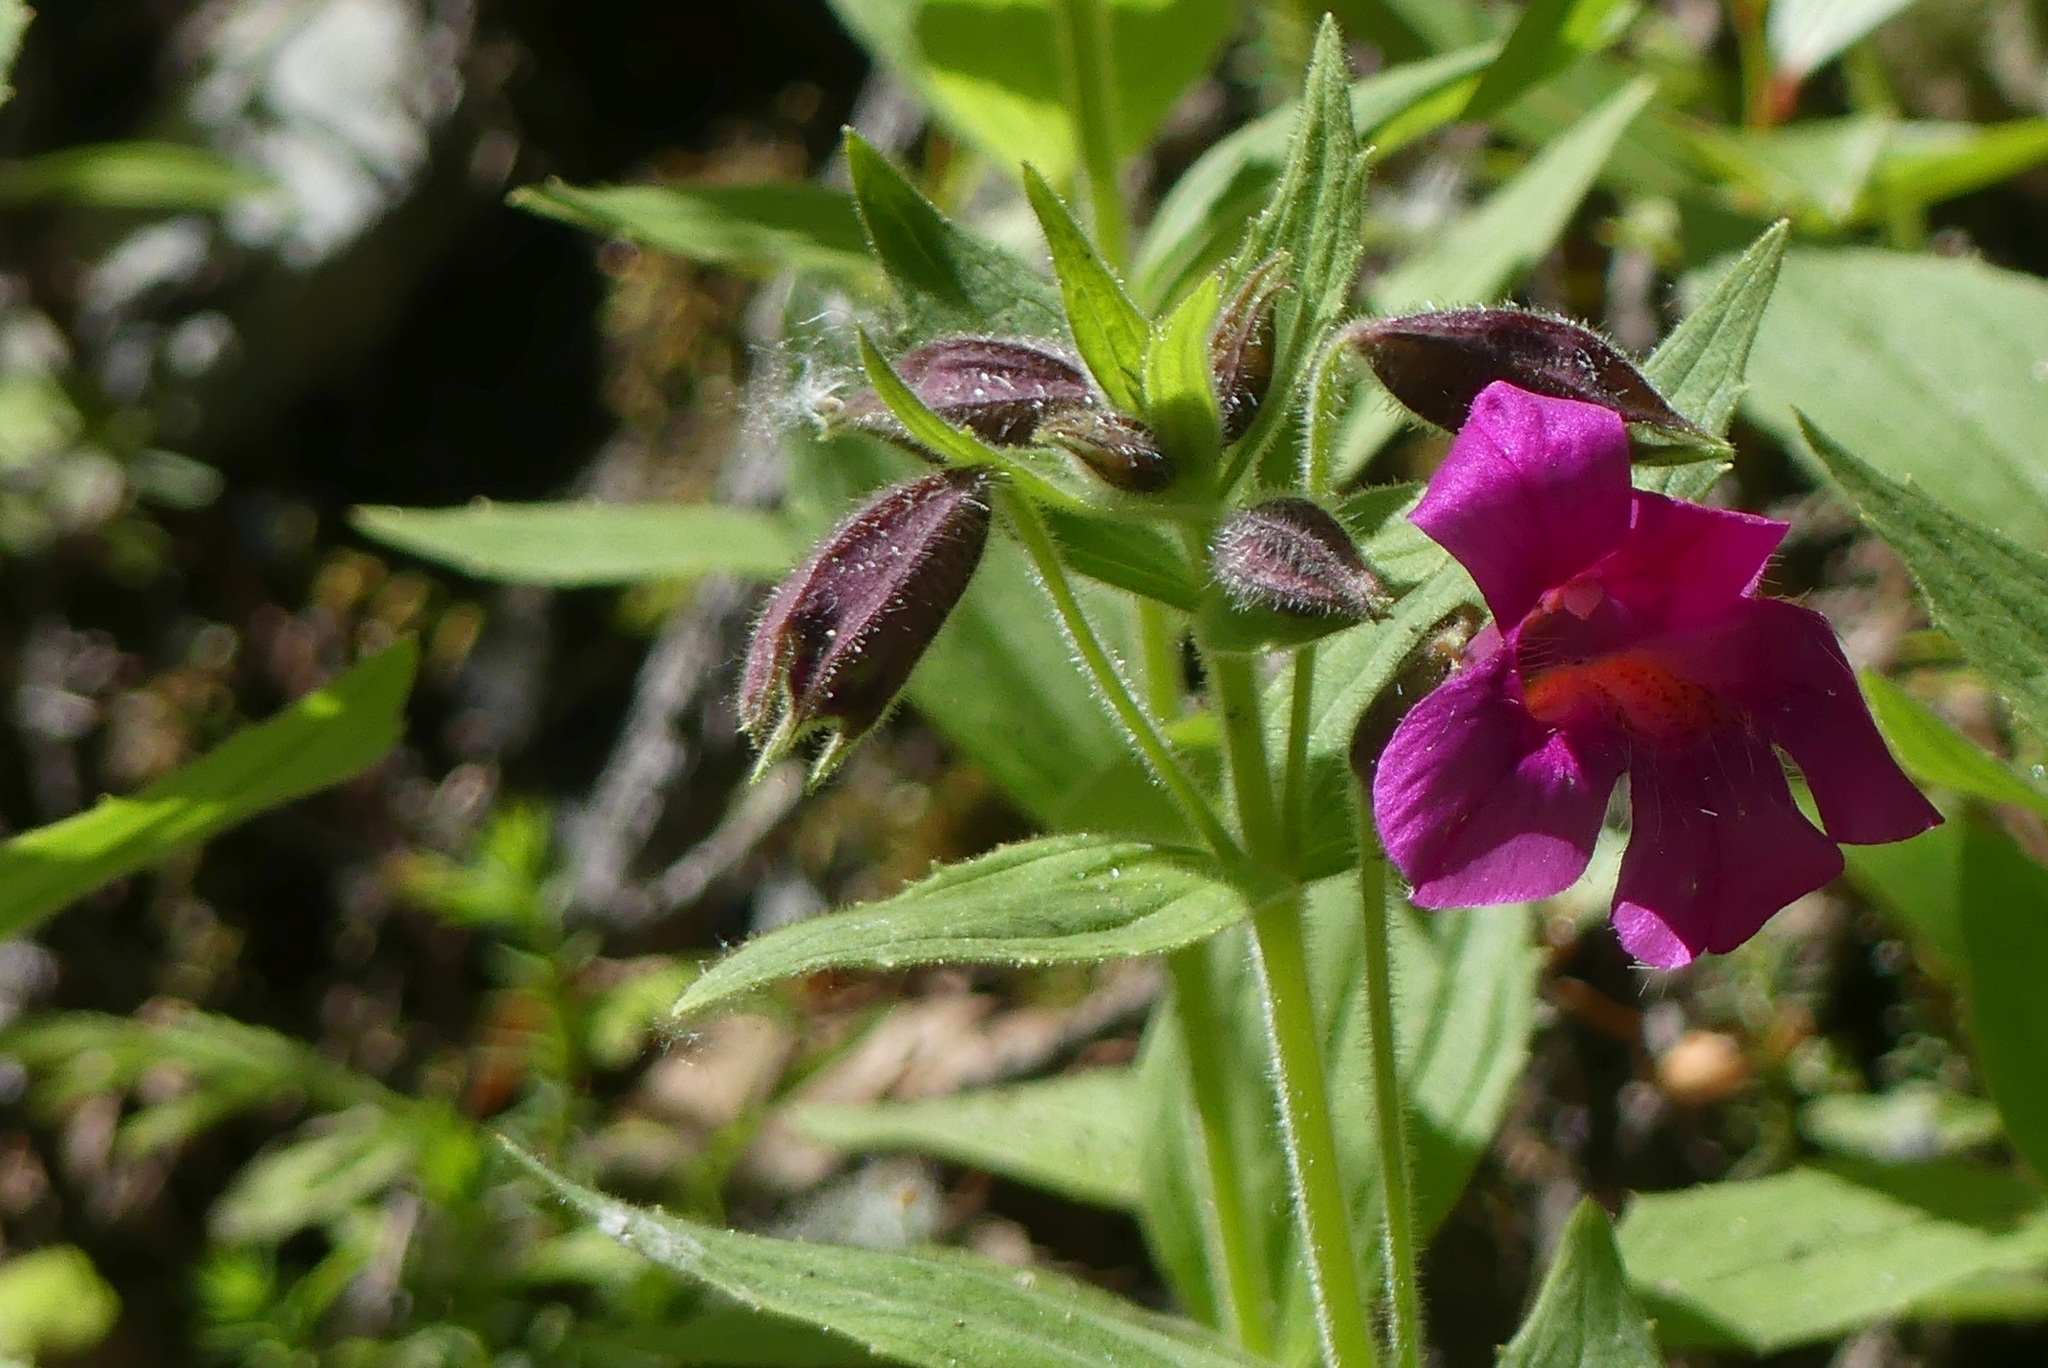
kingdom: Plantae
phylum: Tracheophyta
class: Magnoliopsida
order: Lamiales
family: Phrymaceae
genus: Erythranthe
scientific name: Erythranthe lewisii
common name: Lewis's monkey-flower
